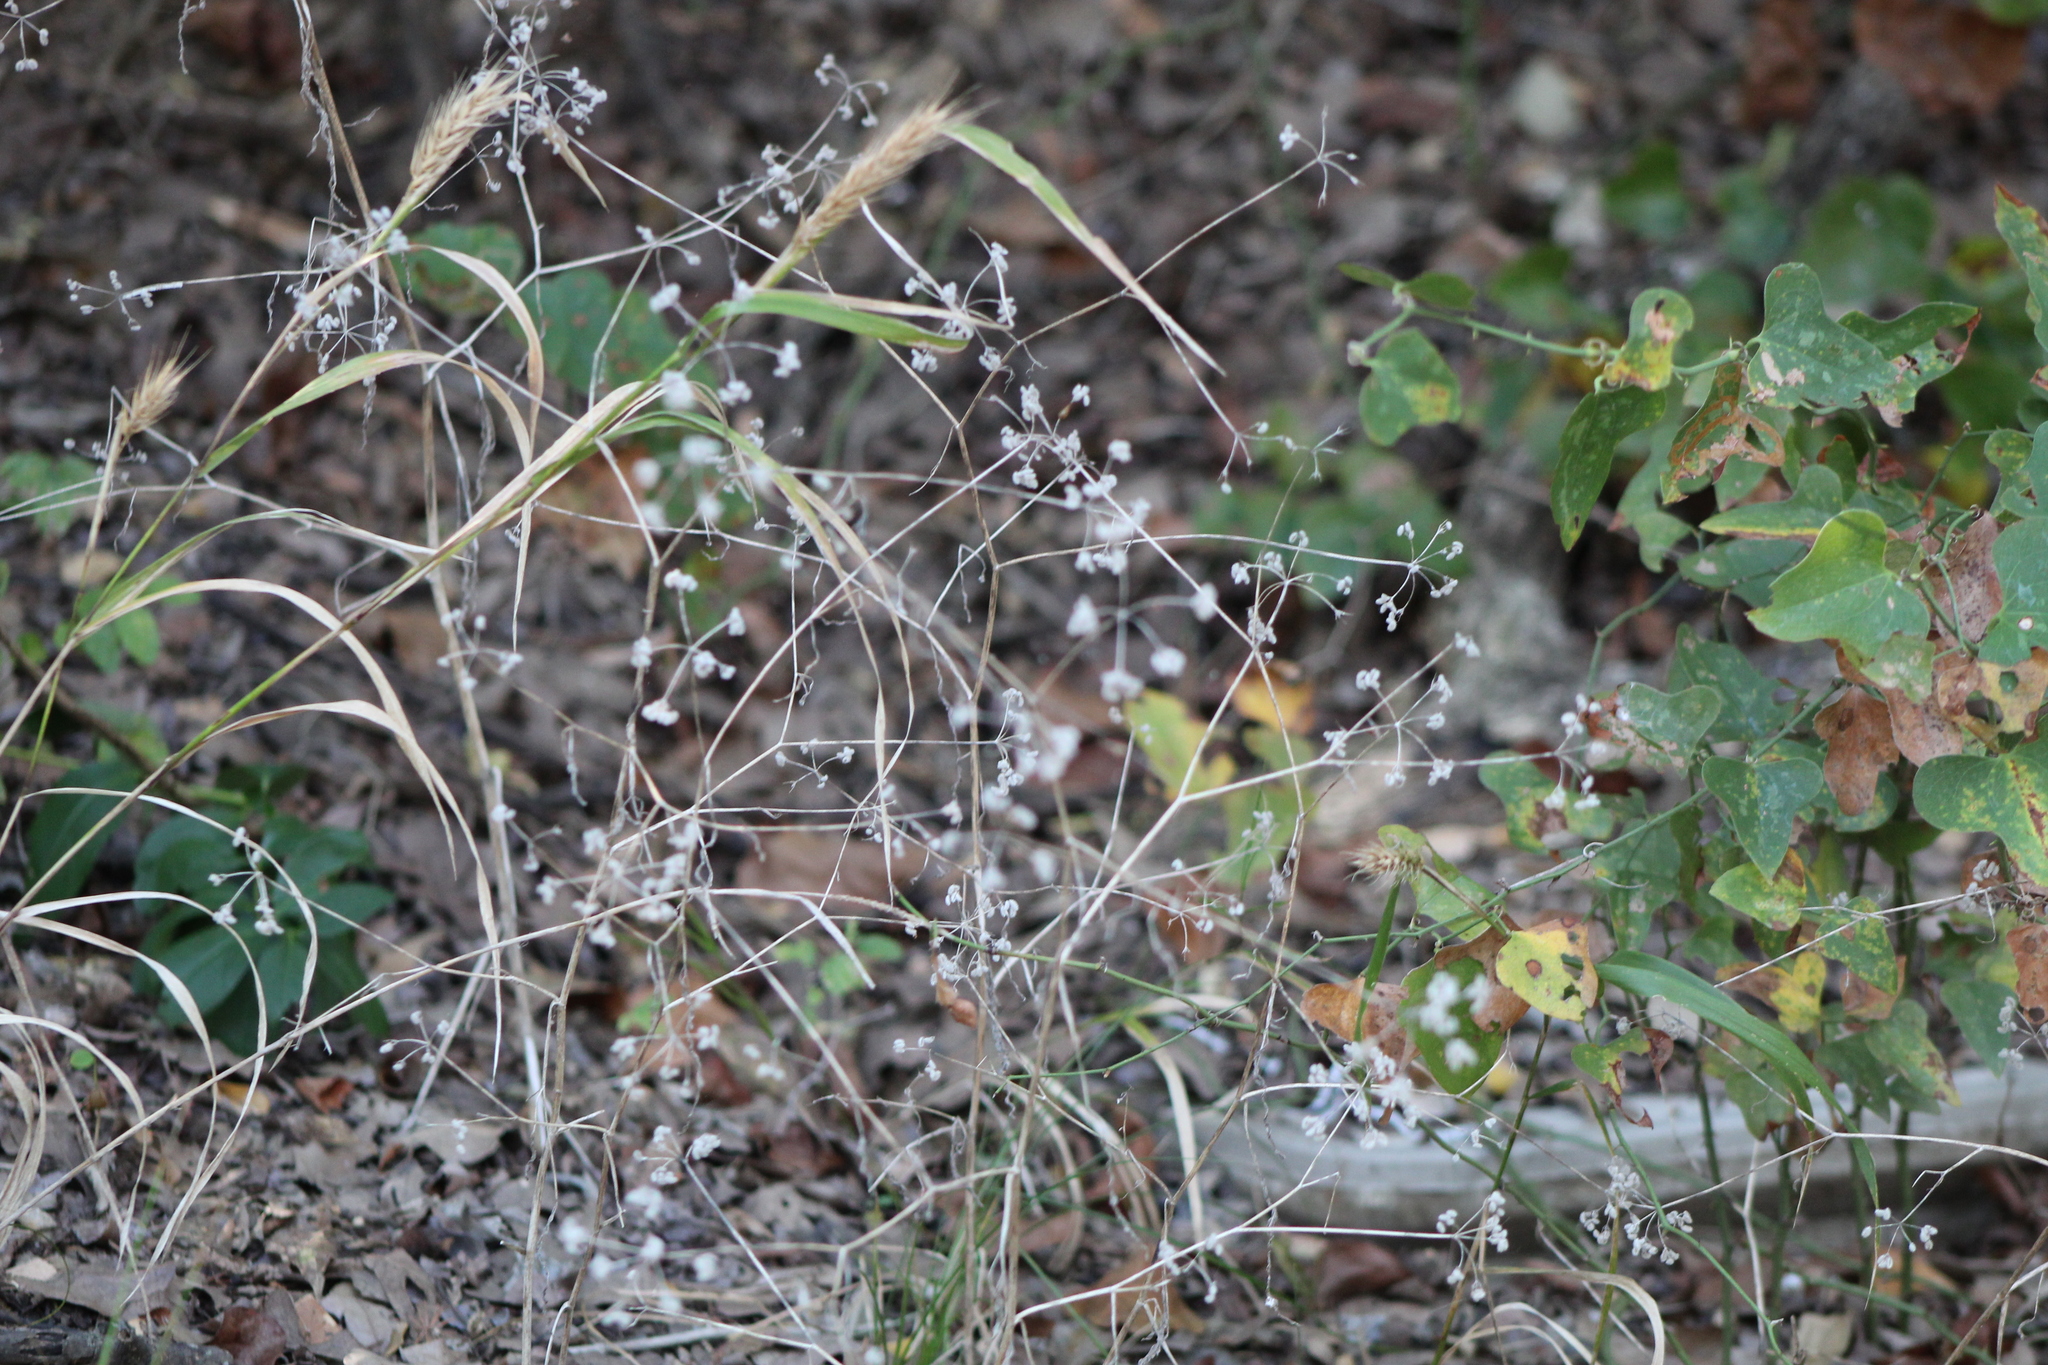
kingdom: Plantae
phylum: Tracheophyta
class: Magnoliopsida
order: Apiales
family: Apiaceae
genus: Torilis
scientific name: Torilis arvensis
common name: Spreading hedge-parsley
